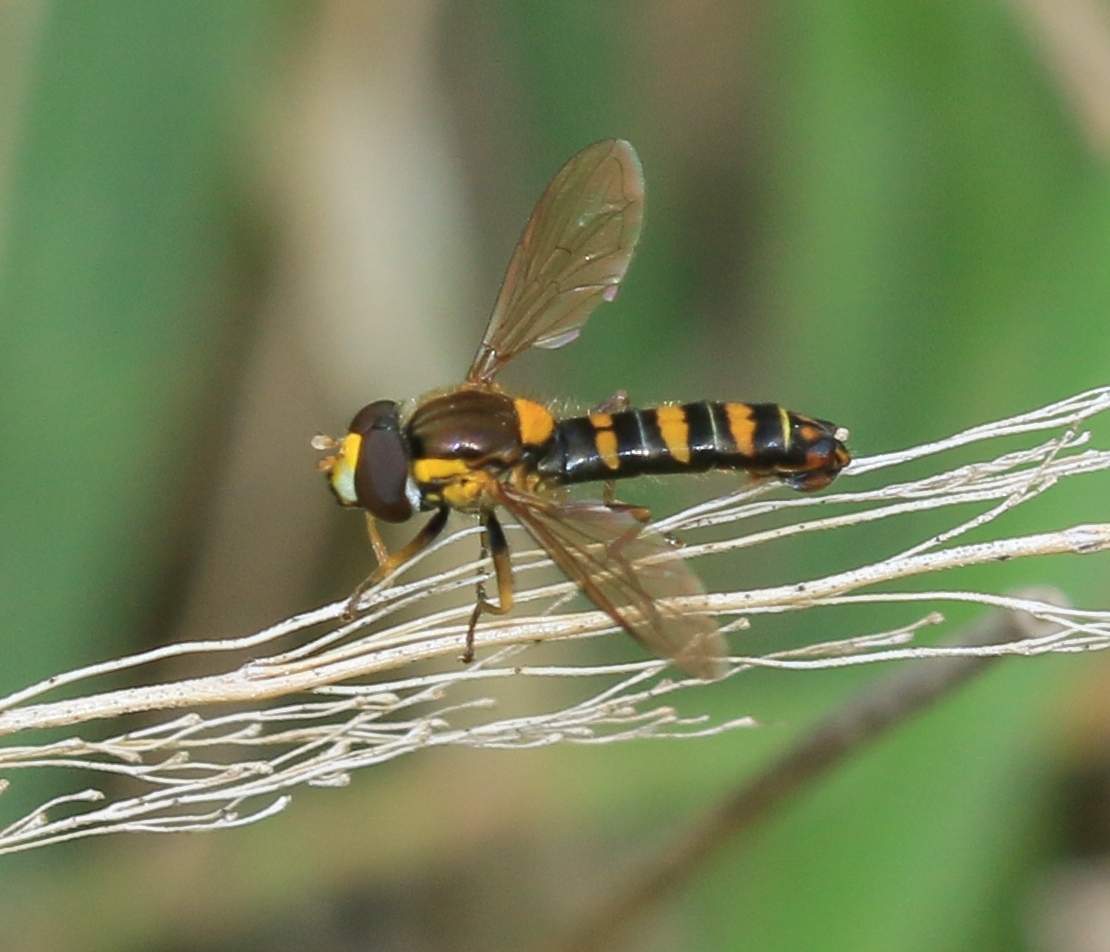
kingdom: Animalia
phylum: Arthropoda
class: Insecta
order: Diptera
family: Syrphidae
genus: Sphaerophoria
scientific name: Sphaerophoria
